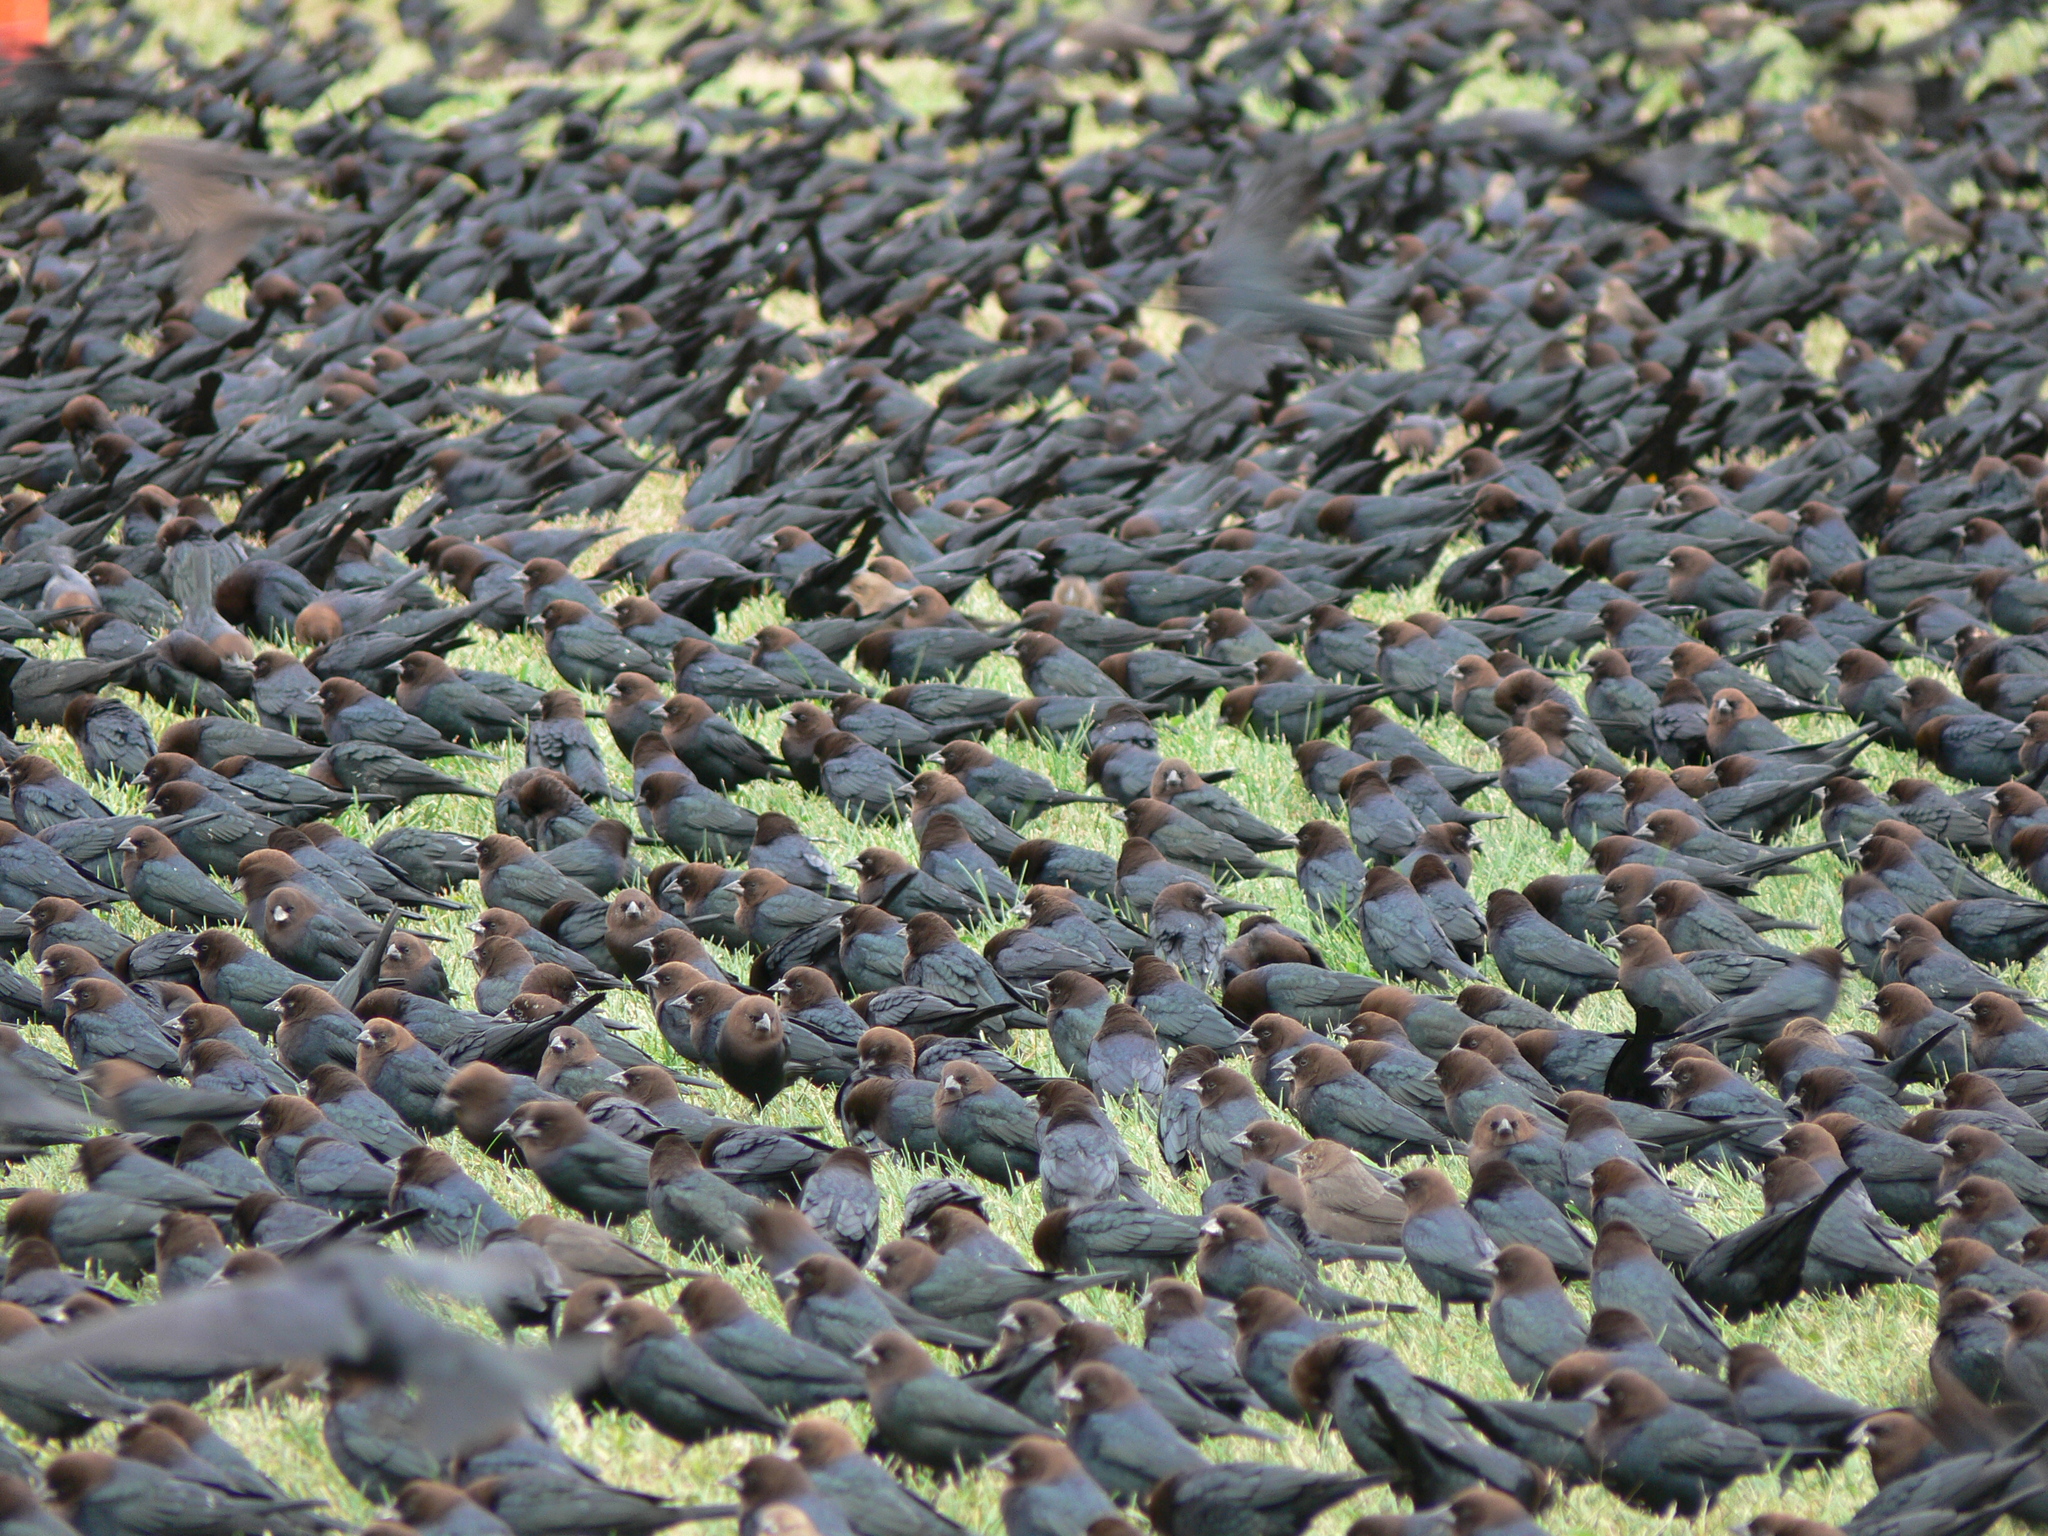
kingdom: Animalia
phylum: Chordata
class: Aves
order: Passeriformes
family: Icteridae
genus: Molothrus
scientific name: Molothrus ater
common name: Brown-headed cowbird
